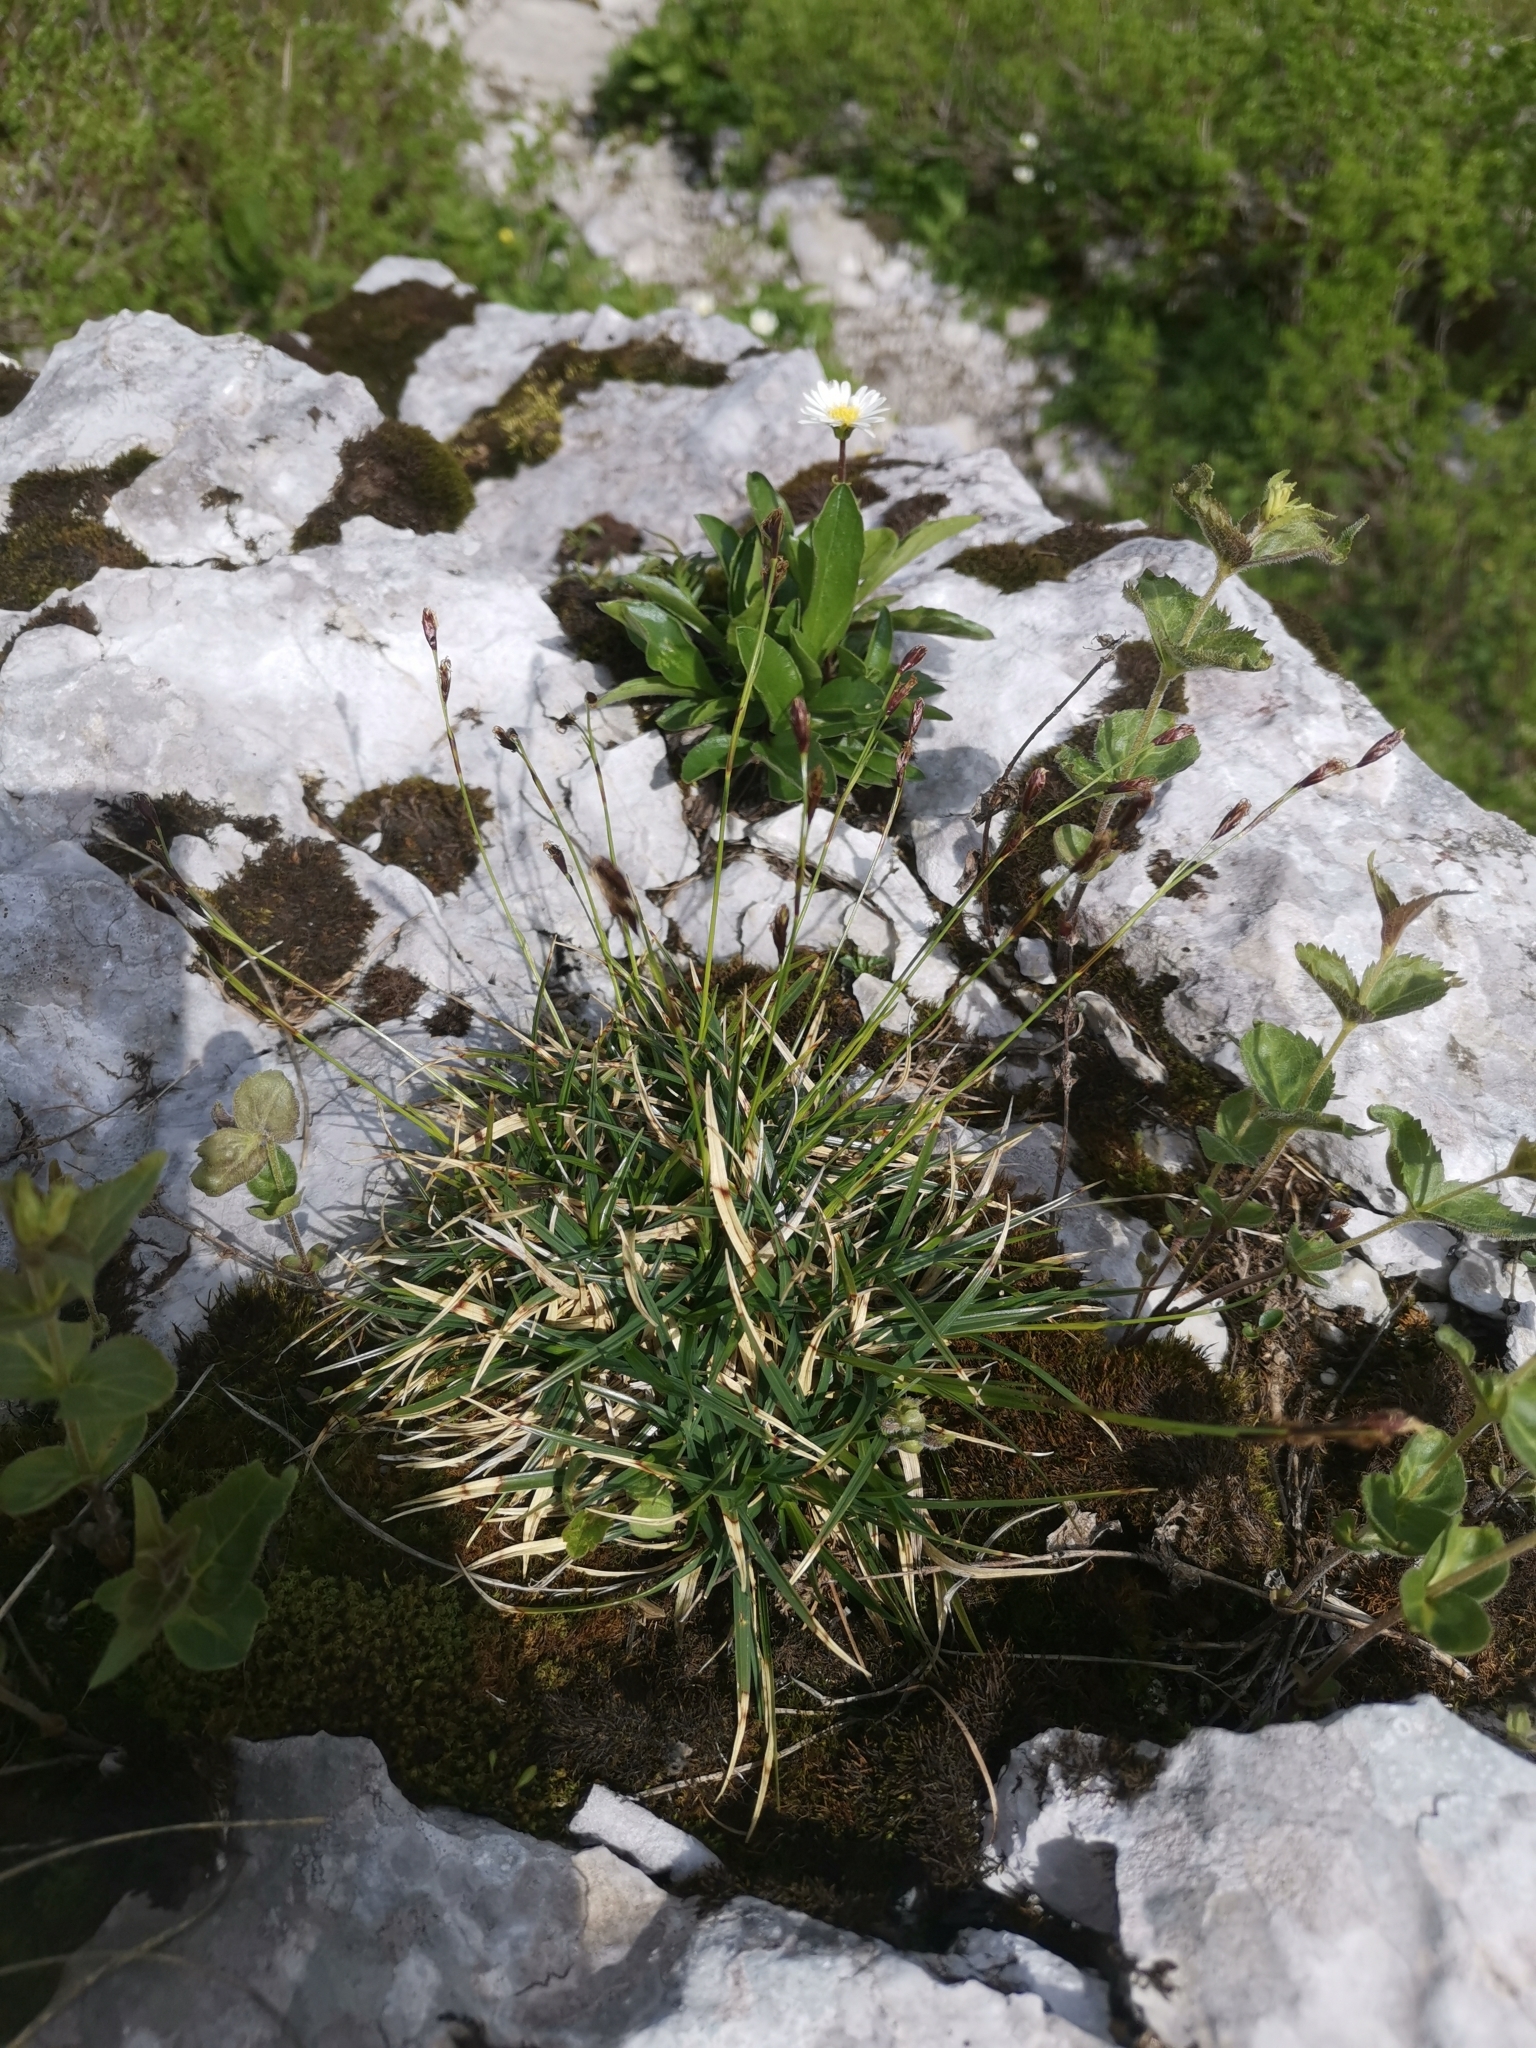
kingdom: Plantae
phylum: Tracheophyta
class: Liliopsida
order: Poales
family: Cyperaceae
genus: Carex
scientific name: Carex firma
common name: Dwarf pillow sedge
